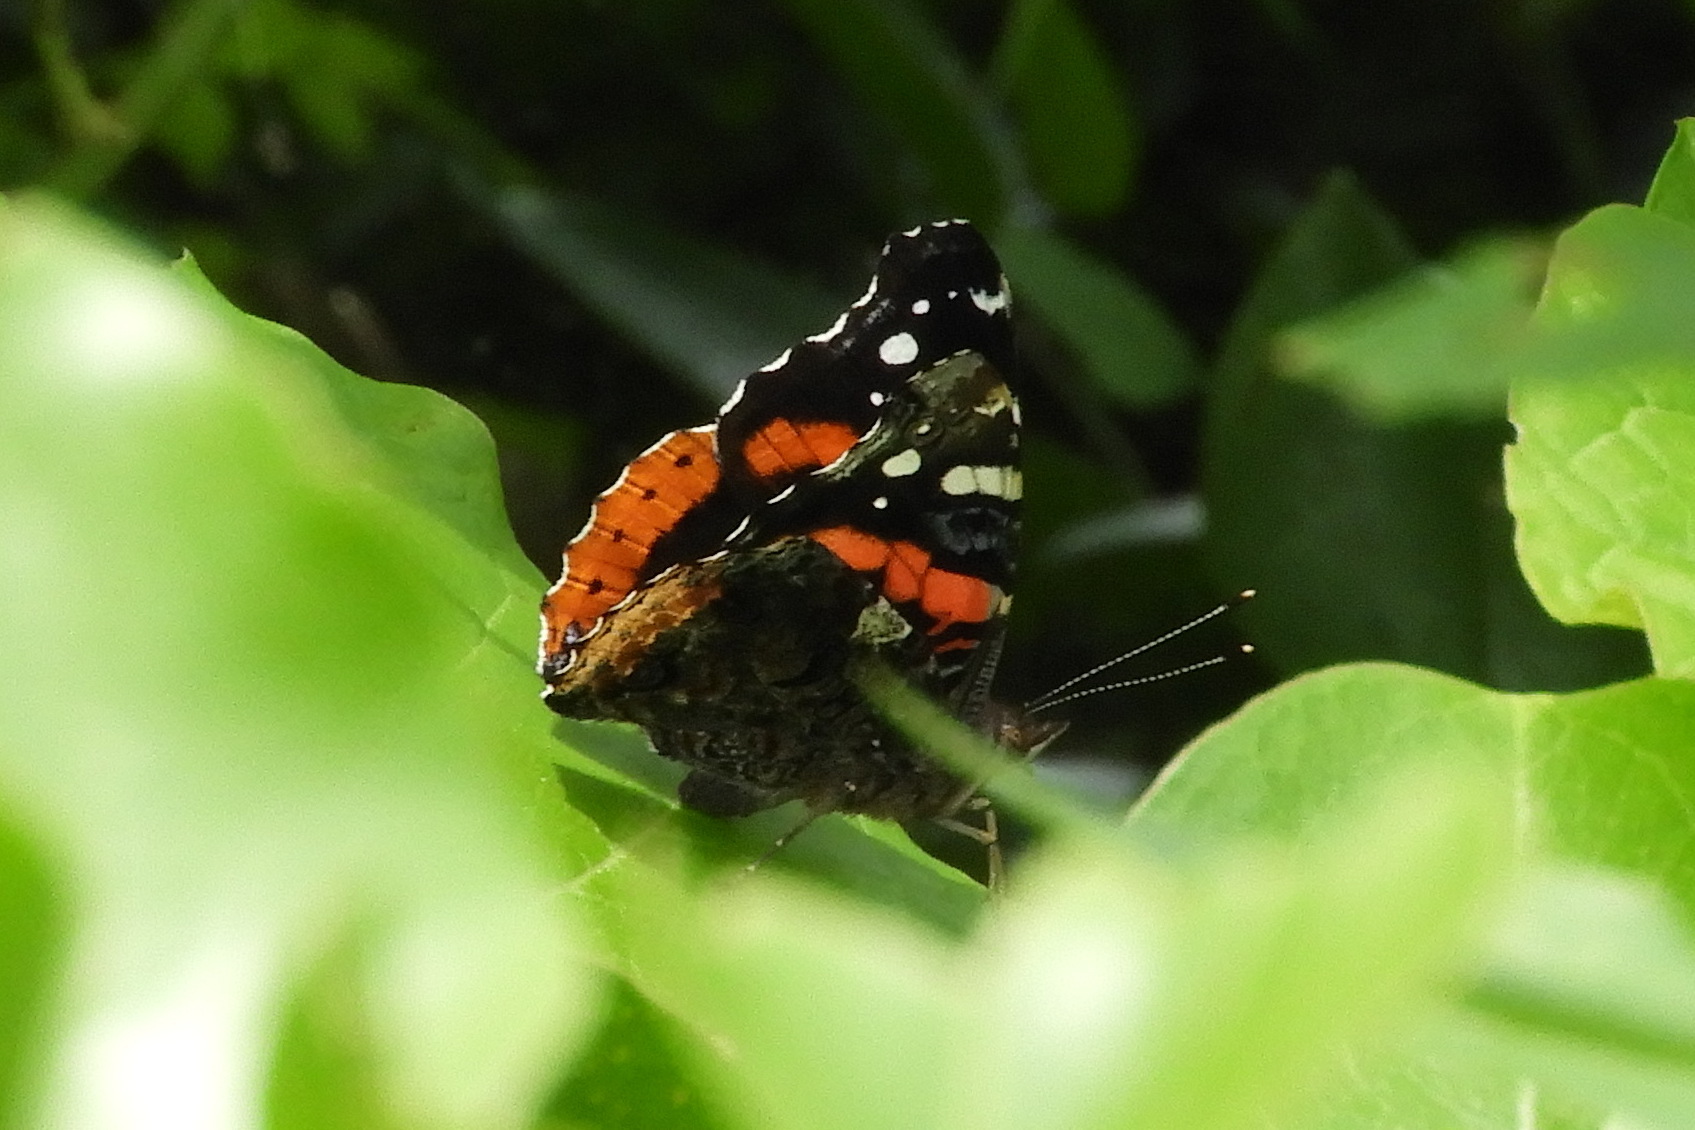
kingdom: Animalia
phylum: Arthropoda
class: Insecta
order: Lepidoptera
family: Nymphalidae
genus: Vanessa
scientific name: Vanessa atalanta
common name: Red admiral
